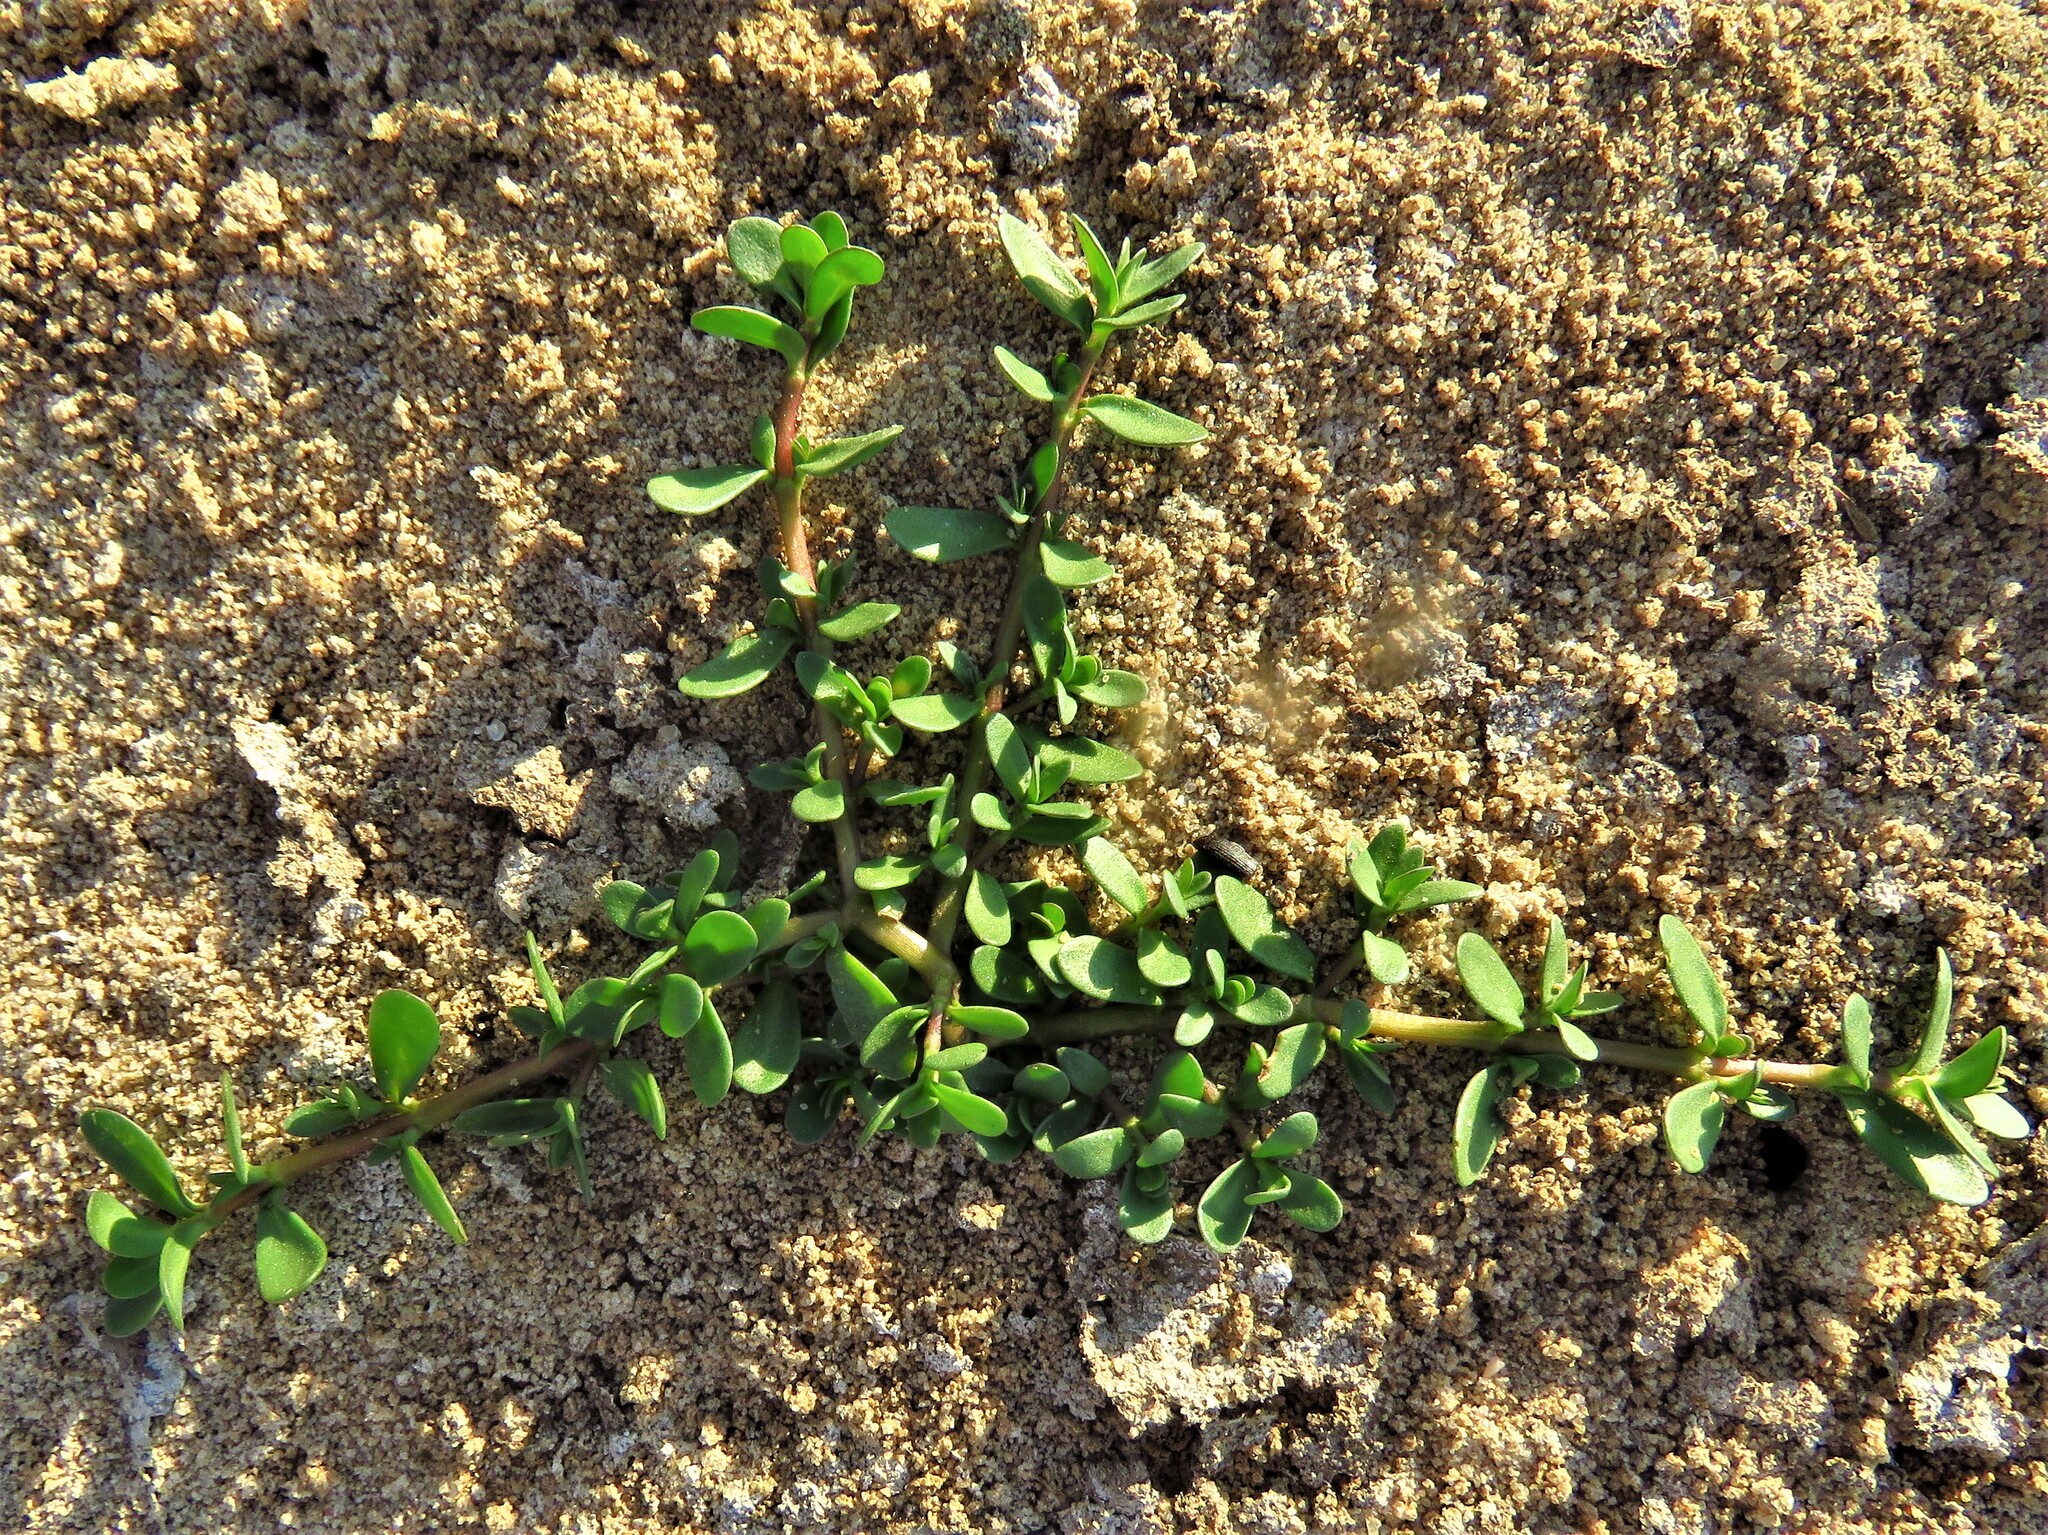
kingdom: Plantae
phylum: Tracheophyta
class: Magnoliopsida
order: Caryophyllales
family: Portulacaceae
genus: Portulaca
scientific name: Portulaca oleracea
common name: Common purslane
